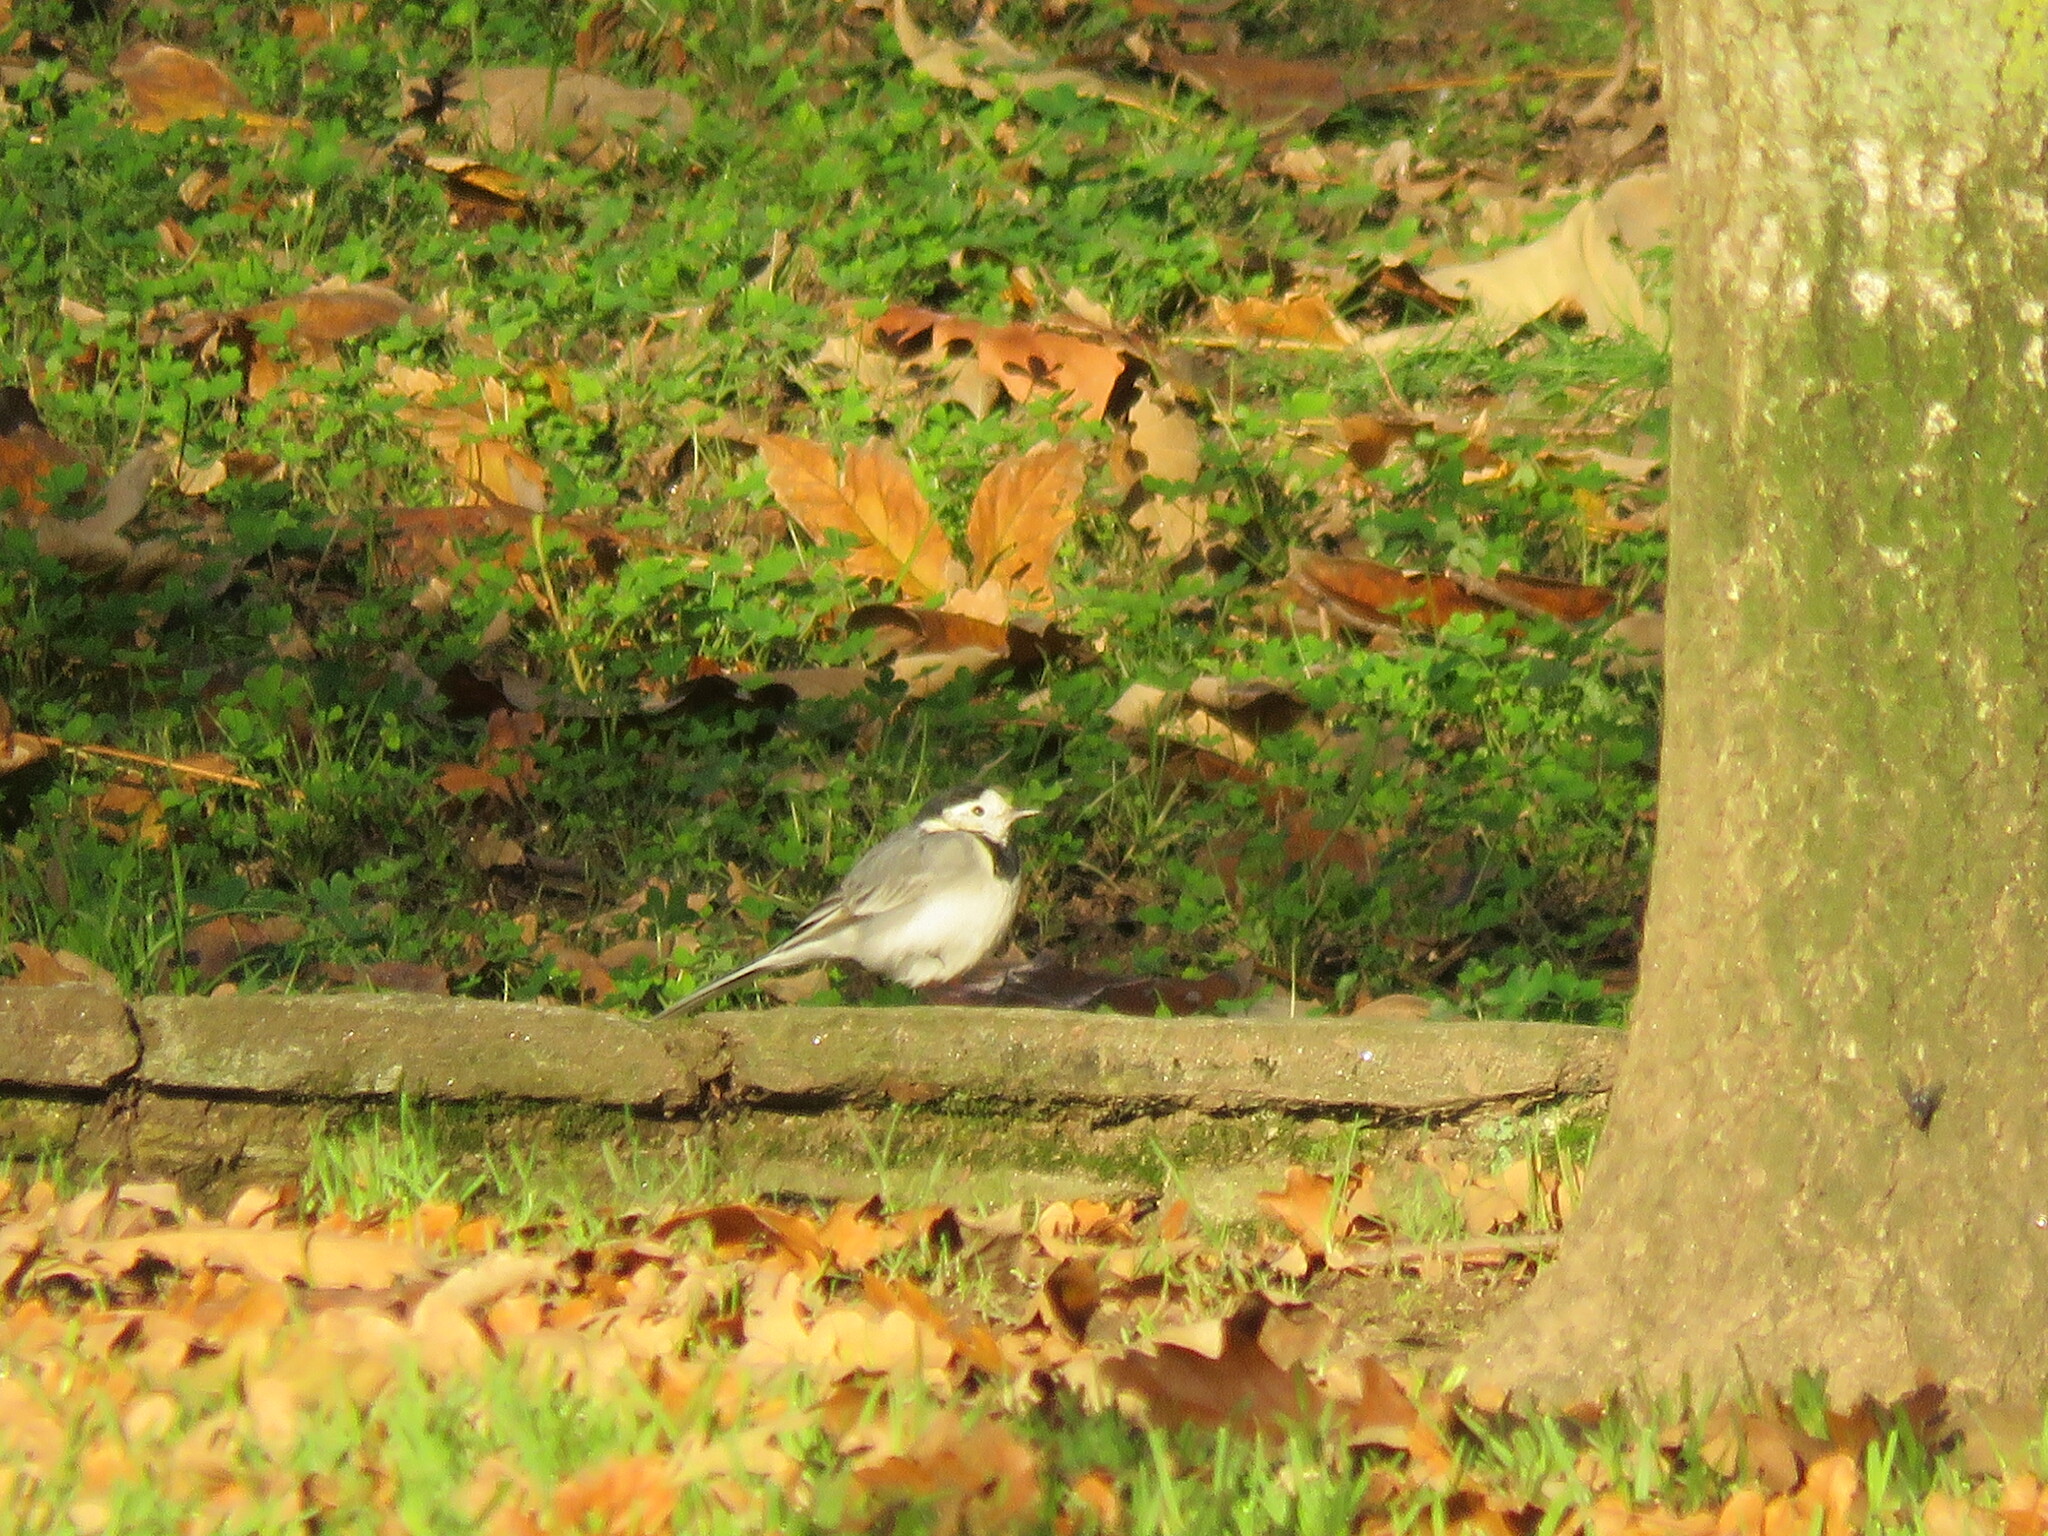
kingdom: Animalia
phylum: Chordata
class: Aves
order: Passeriformes
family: Motacillidae
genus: Motacilla
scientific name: Motacilla alba
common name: White wagtail
